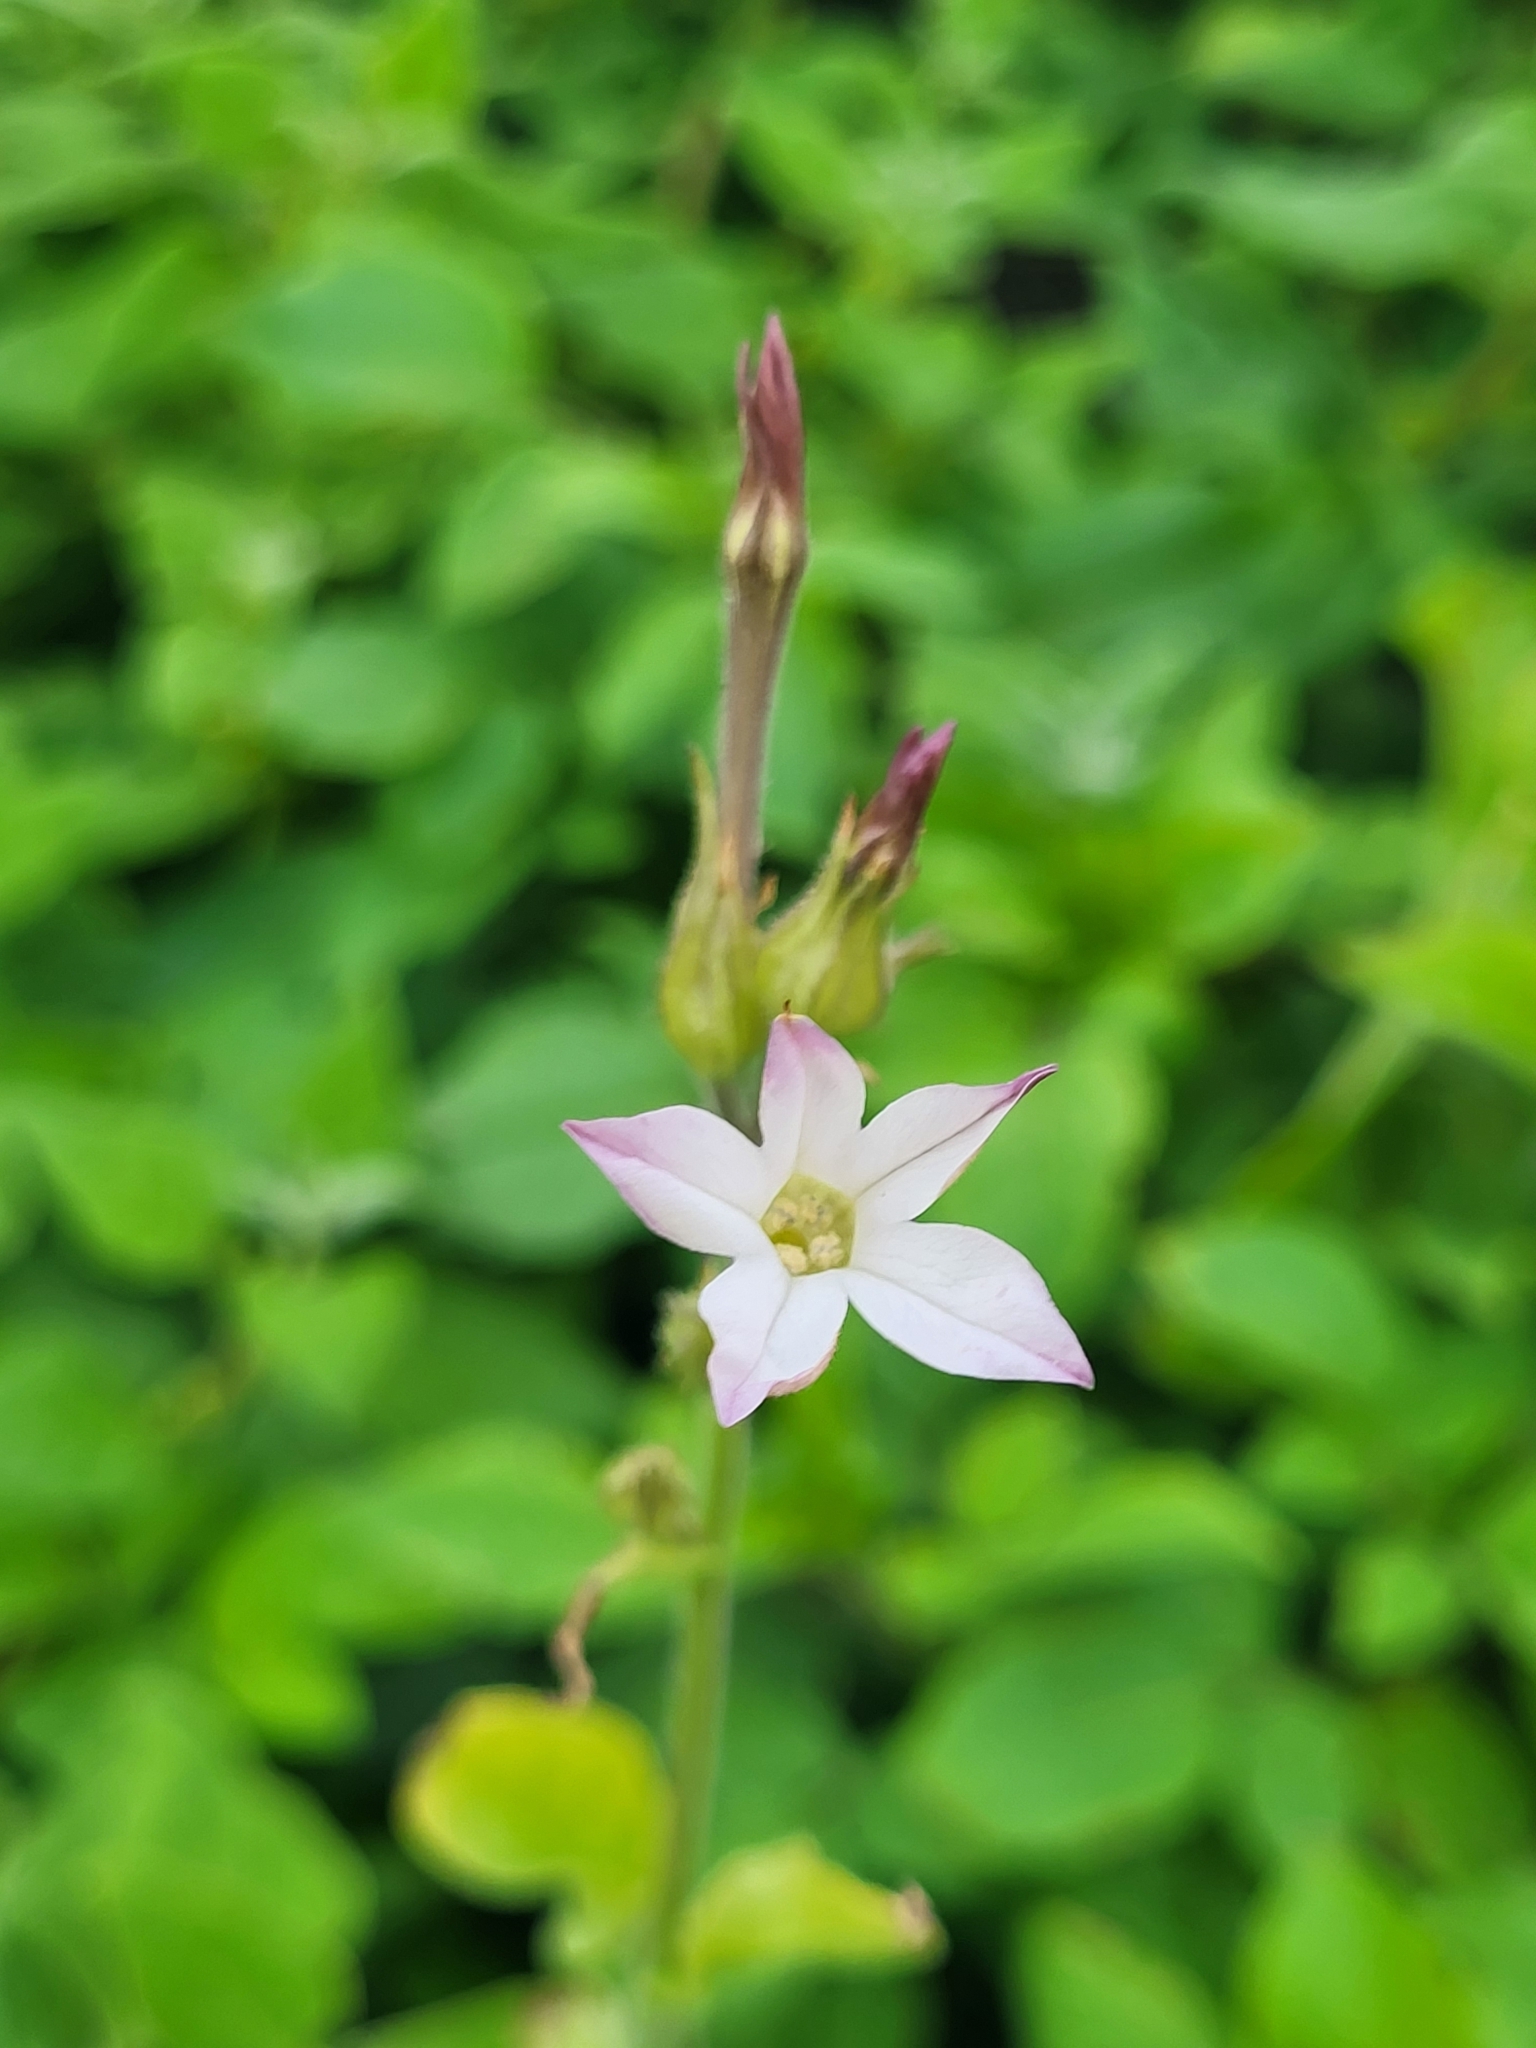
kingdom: Plantae
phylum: Tracheophyta
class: Magnoliopsida
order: Solanales
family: Solanaceae
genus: Nicotiana
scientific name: Nicotiana plumbaginifolia
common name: Tex-mex tobacco
